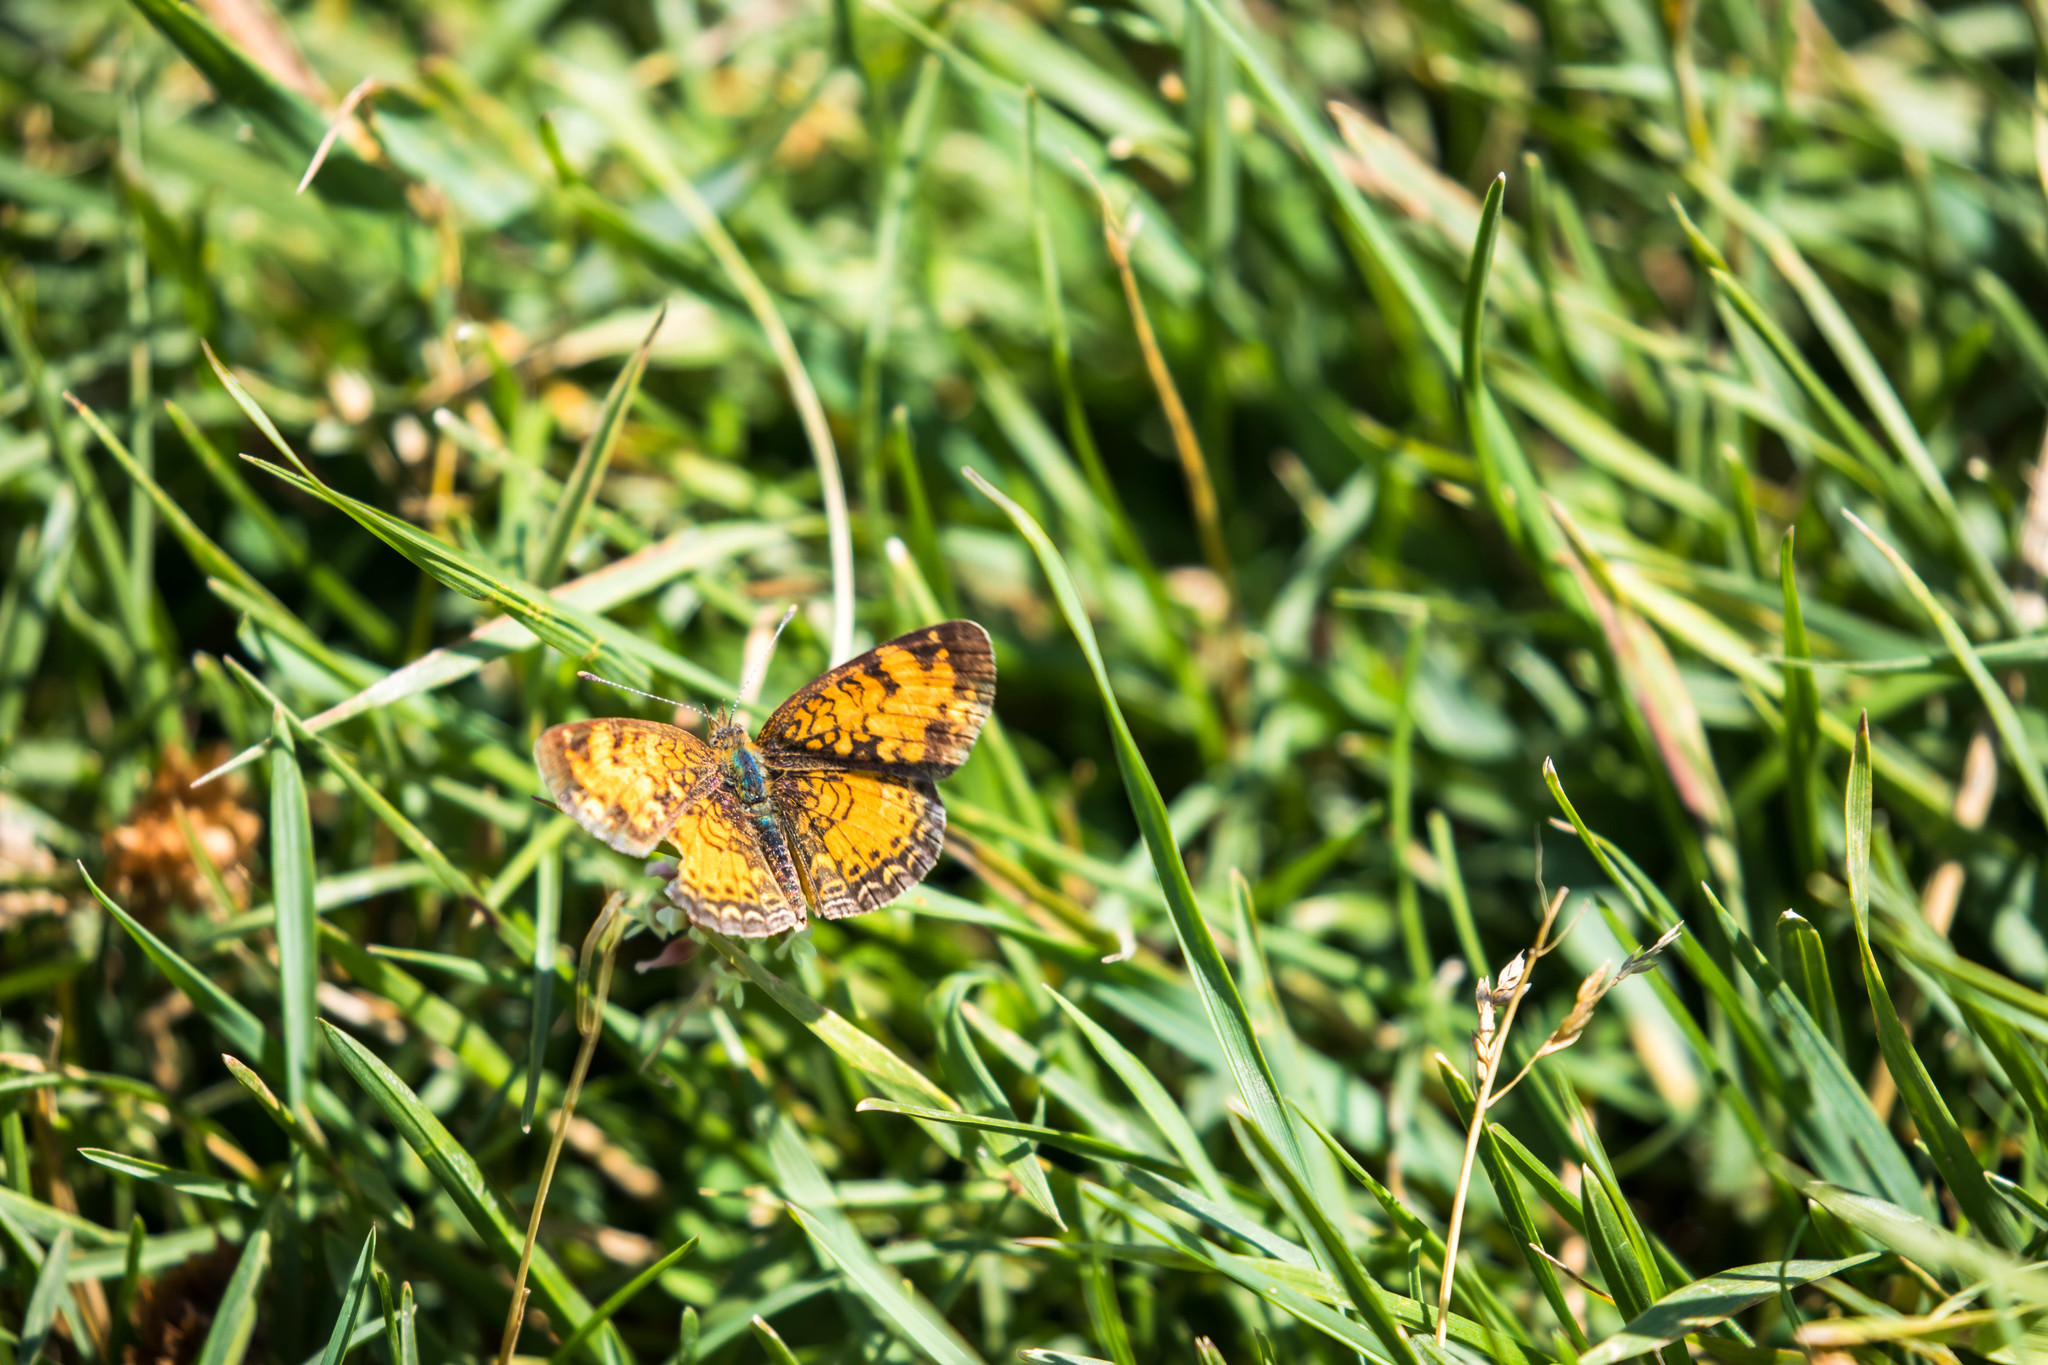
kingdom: Animalia
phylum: Arthropoda
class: Insecta
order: Lepidoptera
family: Nymphalidae
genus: Phyciodes
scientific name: Phyciodes tharos
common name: Pearl crescent
